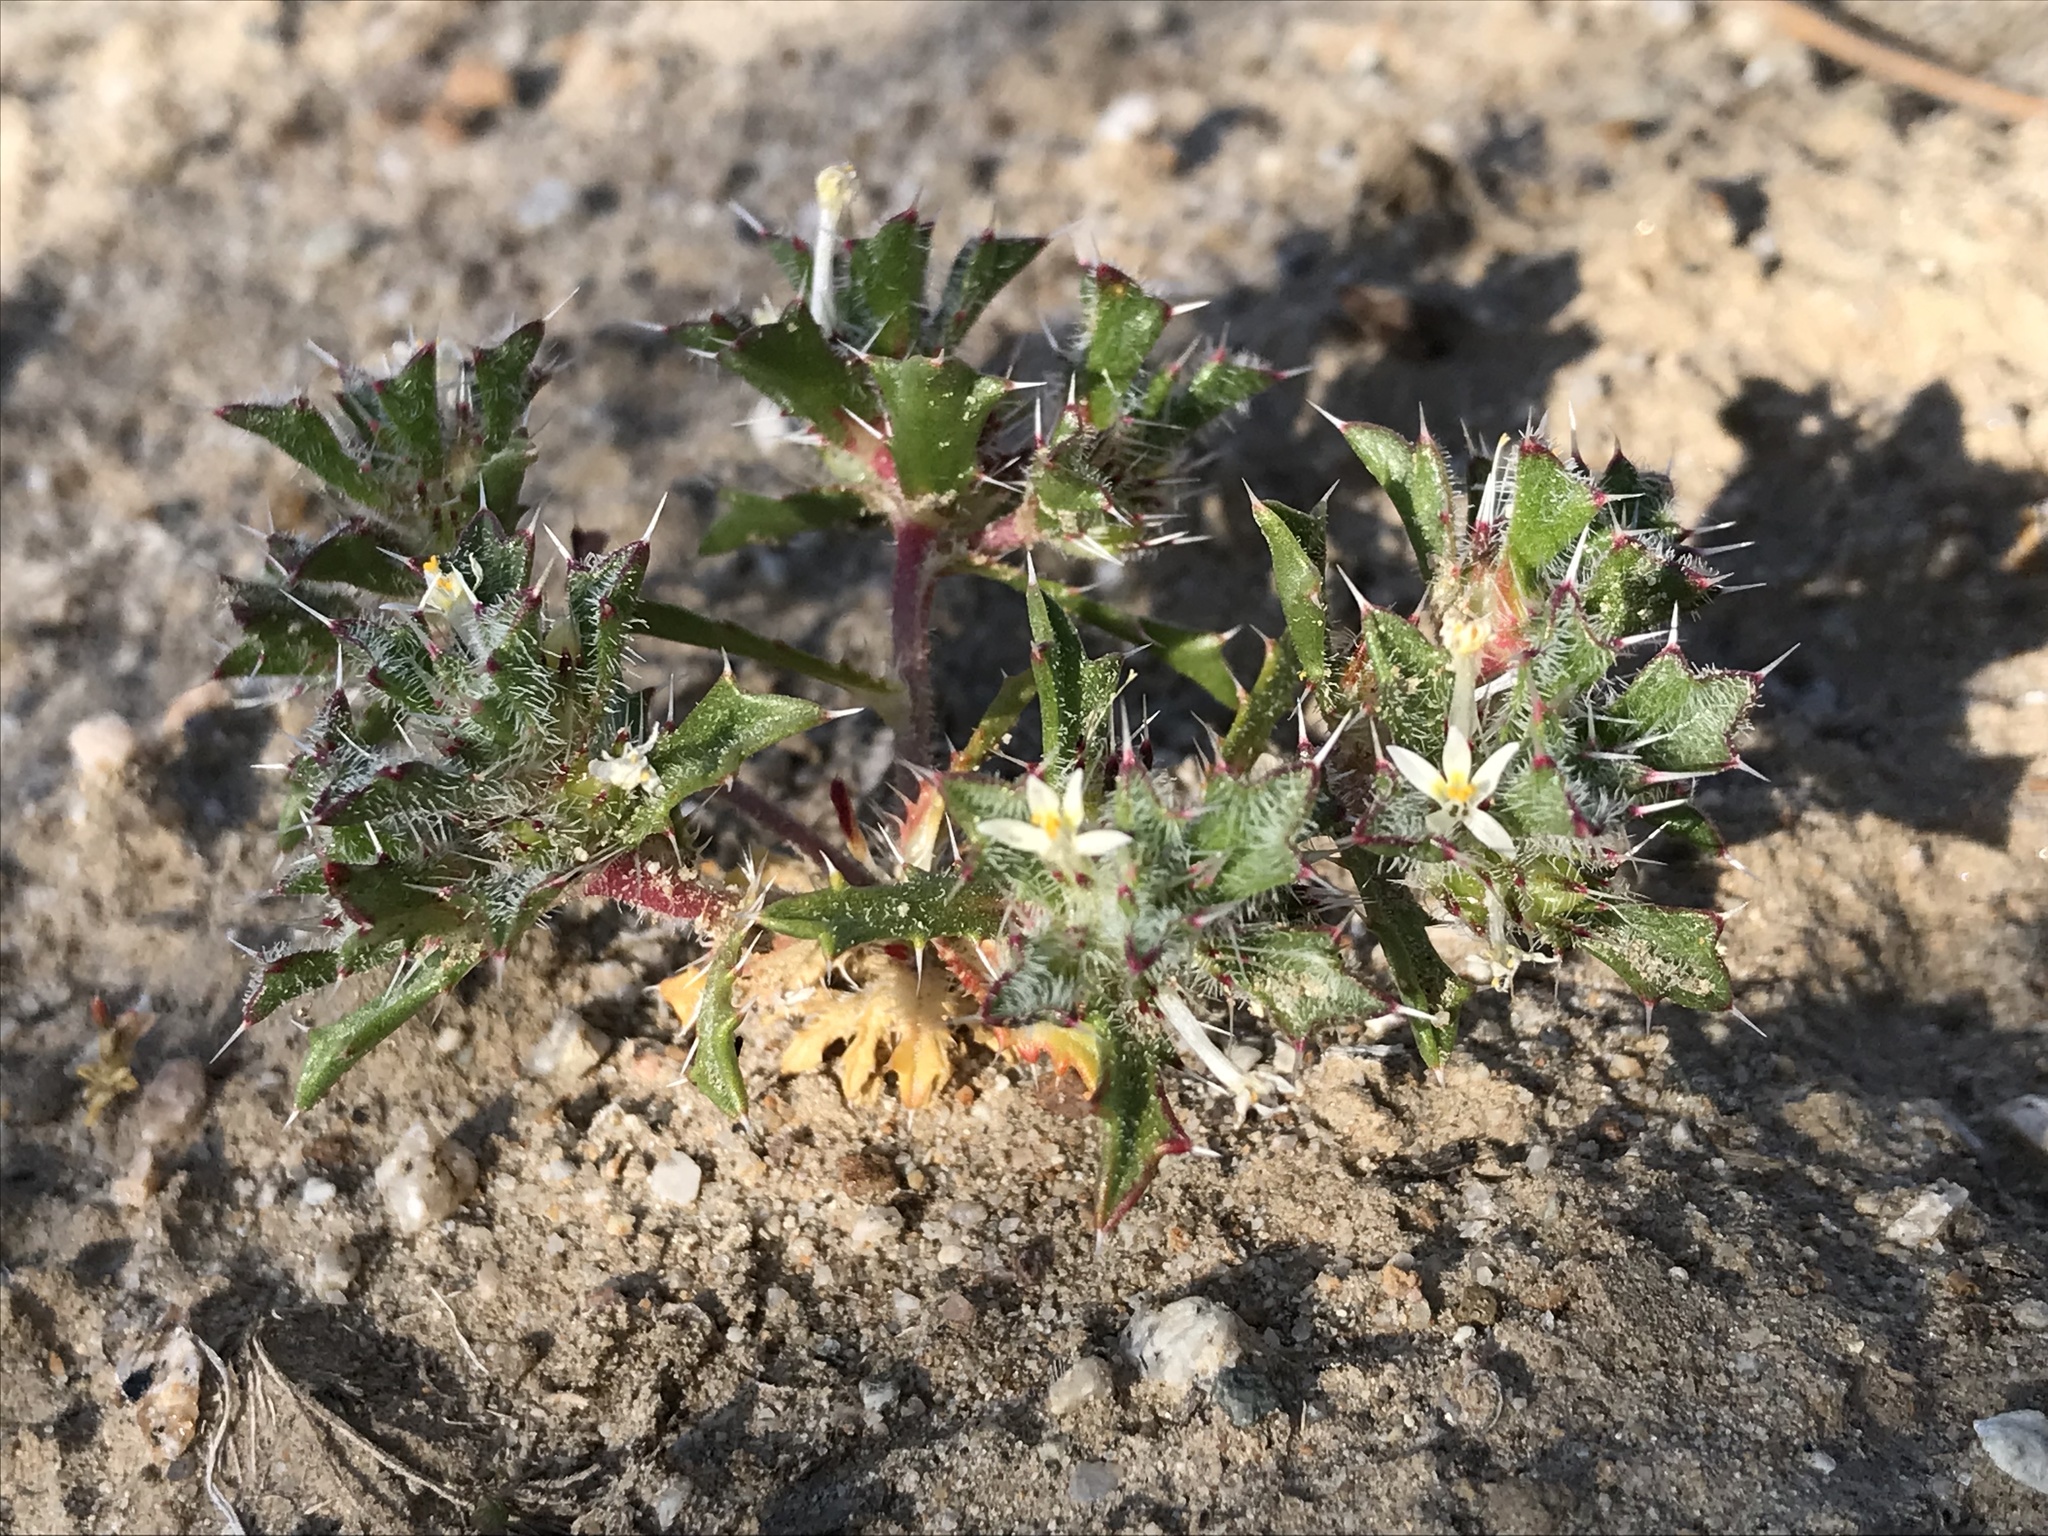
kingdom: Plantae
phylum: Tracheophyta
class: Magnoliopsida
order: Ericales
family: Polemoniaceae
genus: Loeseliastrum
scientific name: Loeseliastrum schottii
